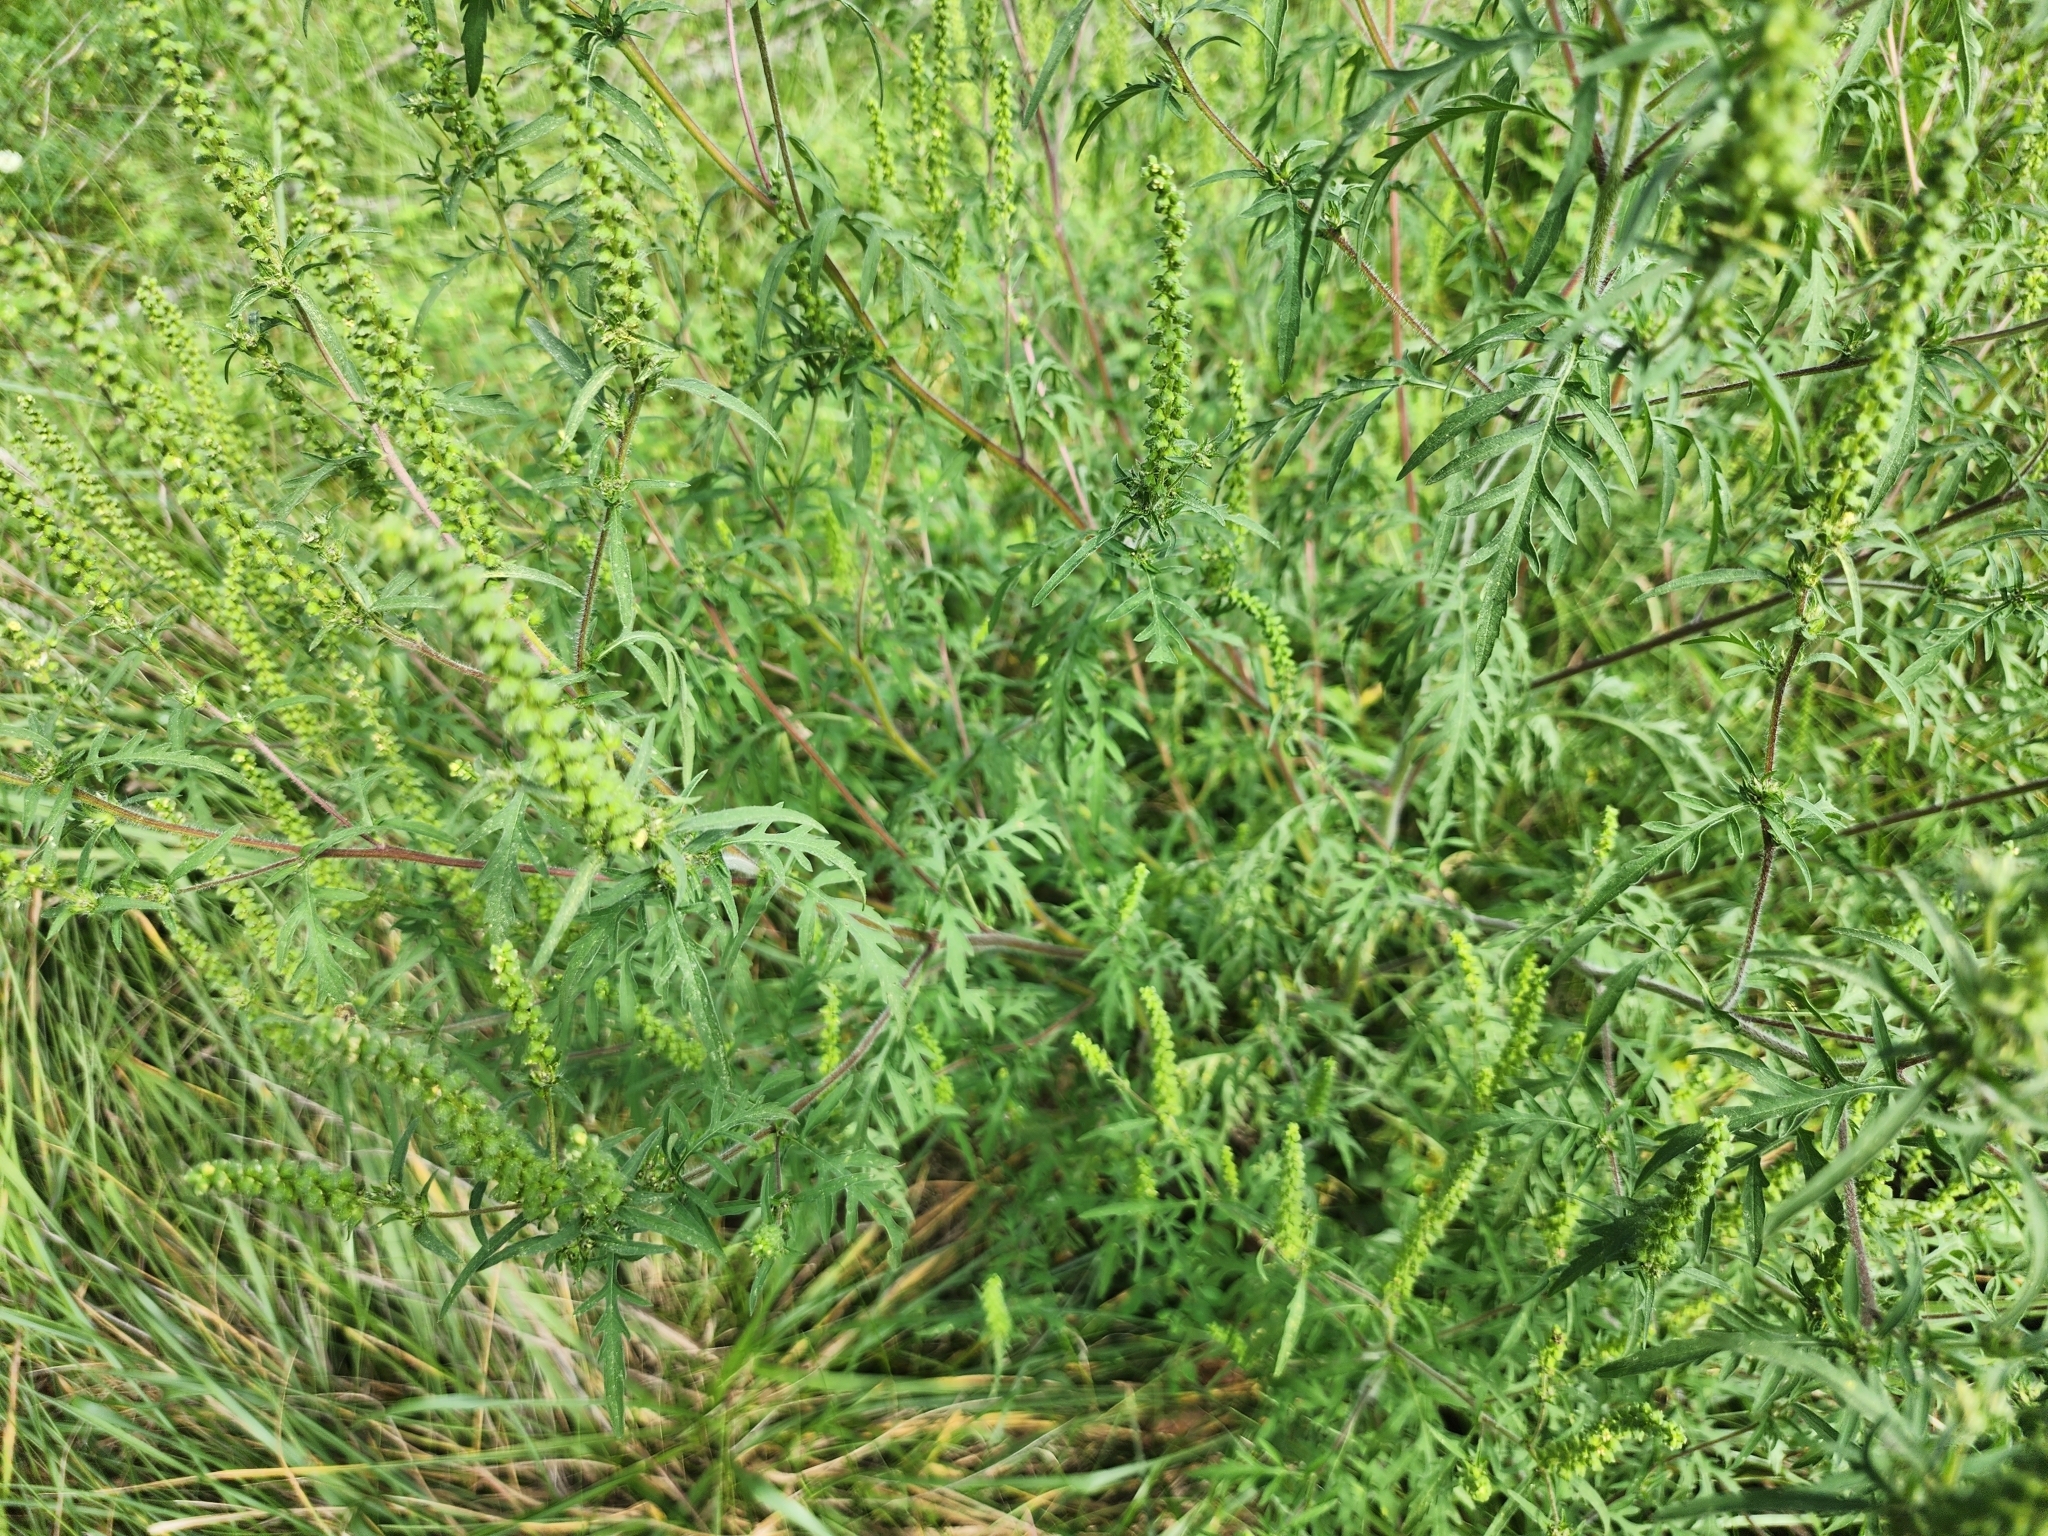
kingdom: Plantae
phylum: Tracheophyta
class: Magnoliopsida
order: Asterales
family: Asteraceae
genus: Ambrosia
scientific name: Ambrosia artemisiifolia
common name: Annual ragweed
